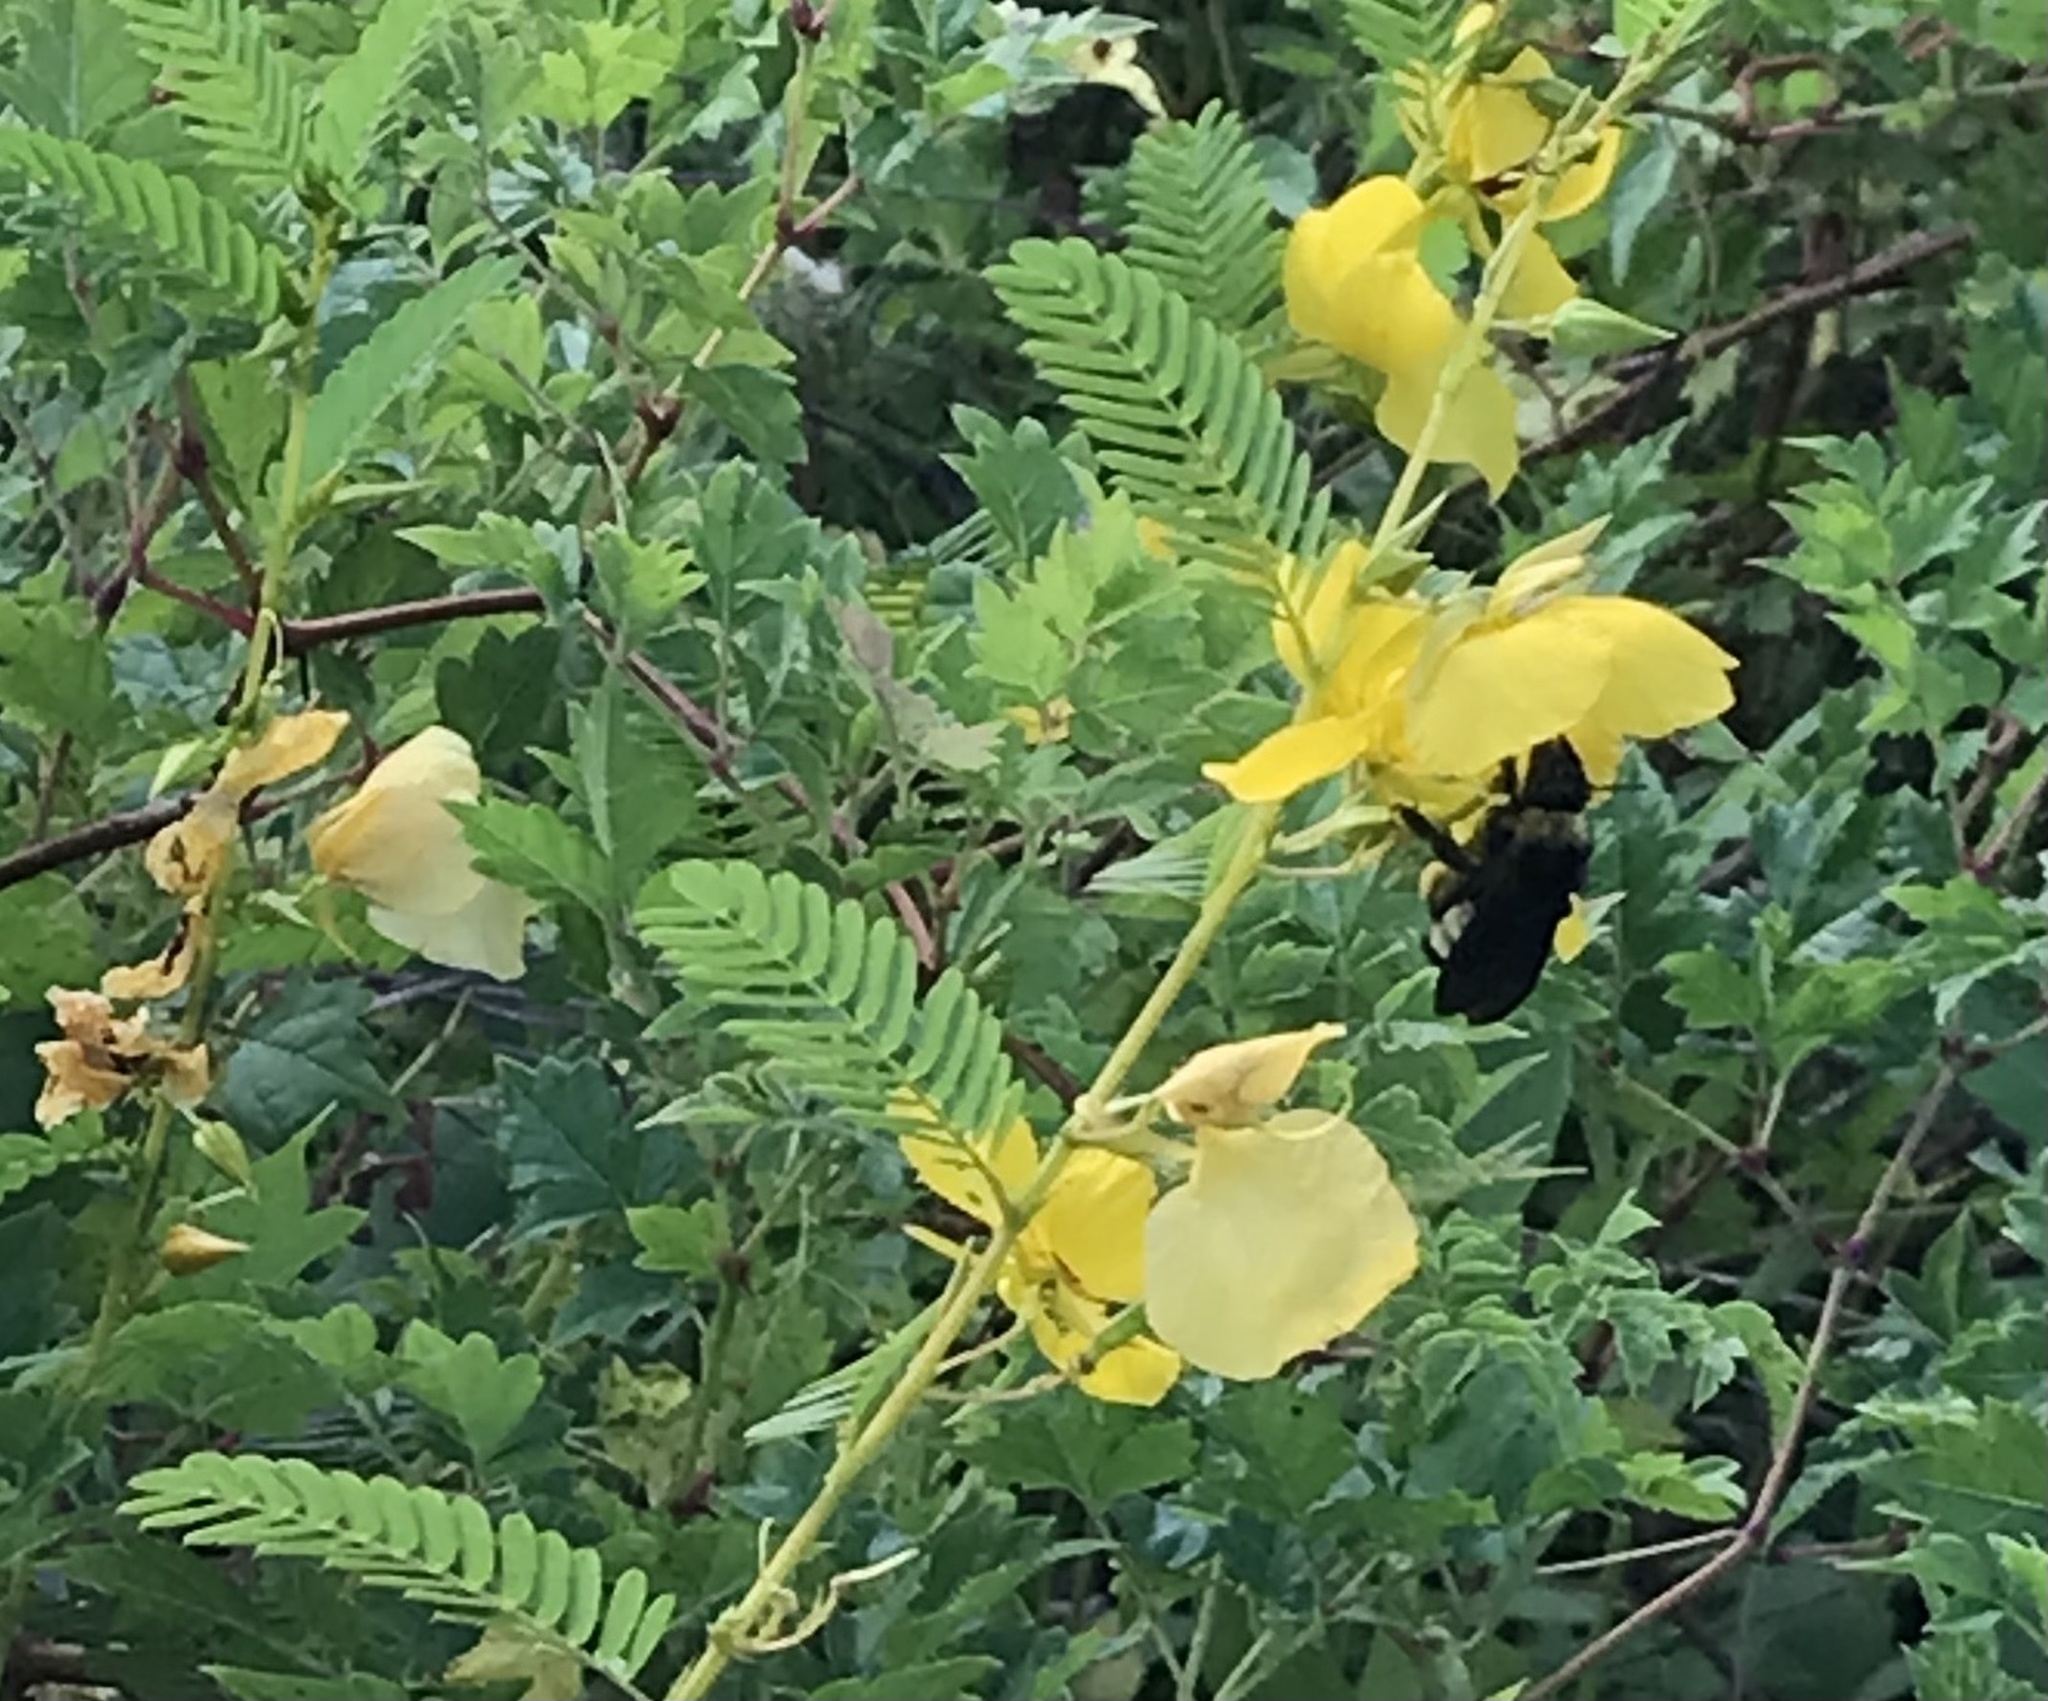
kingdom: Animalia
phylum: Arthropoda
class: Insecta
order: Hymenoptera
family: Apidae
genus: Bombus
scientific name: Bombus pensylvanicus
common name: Bumble bee
